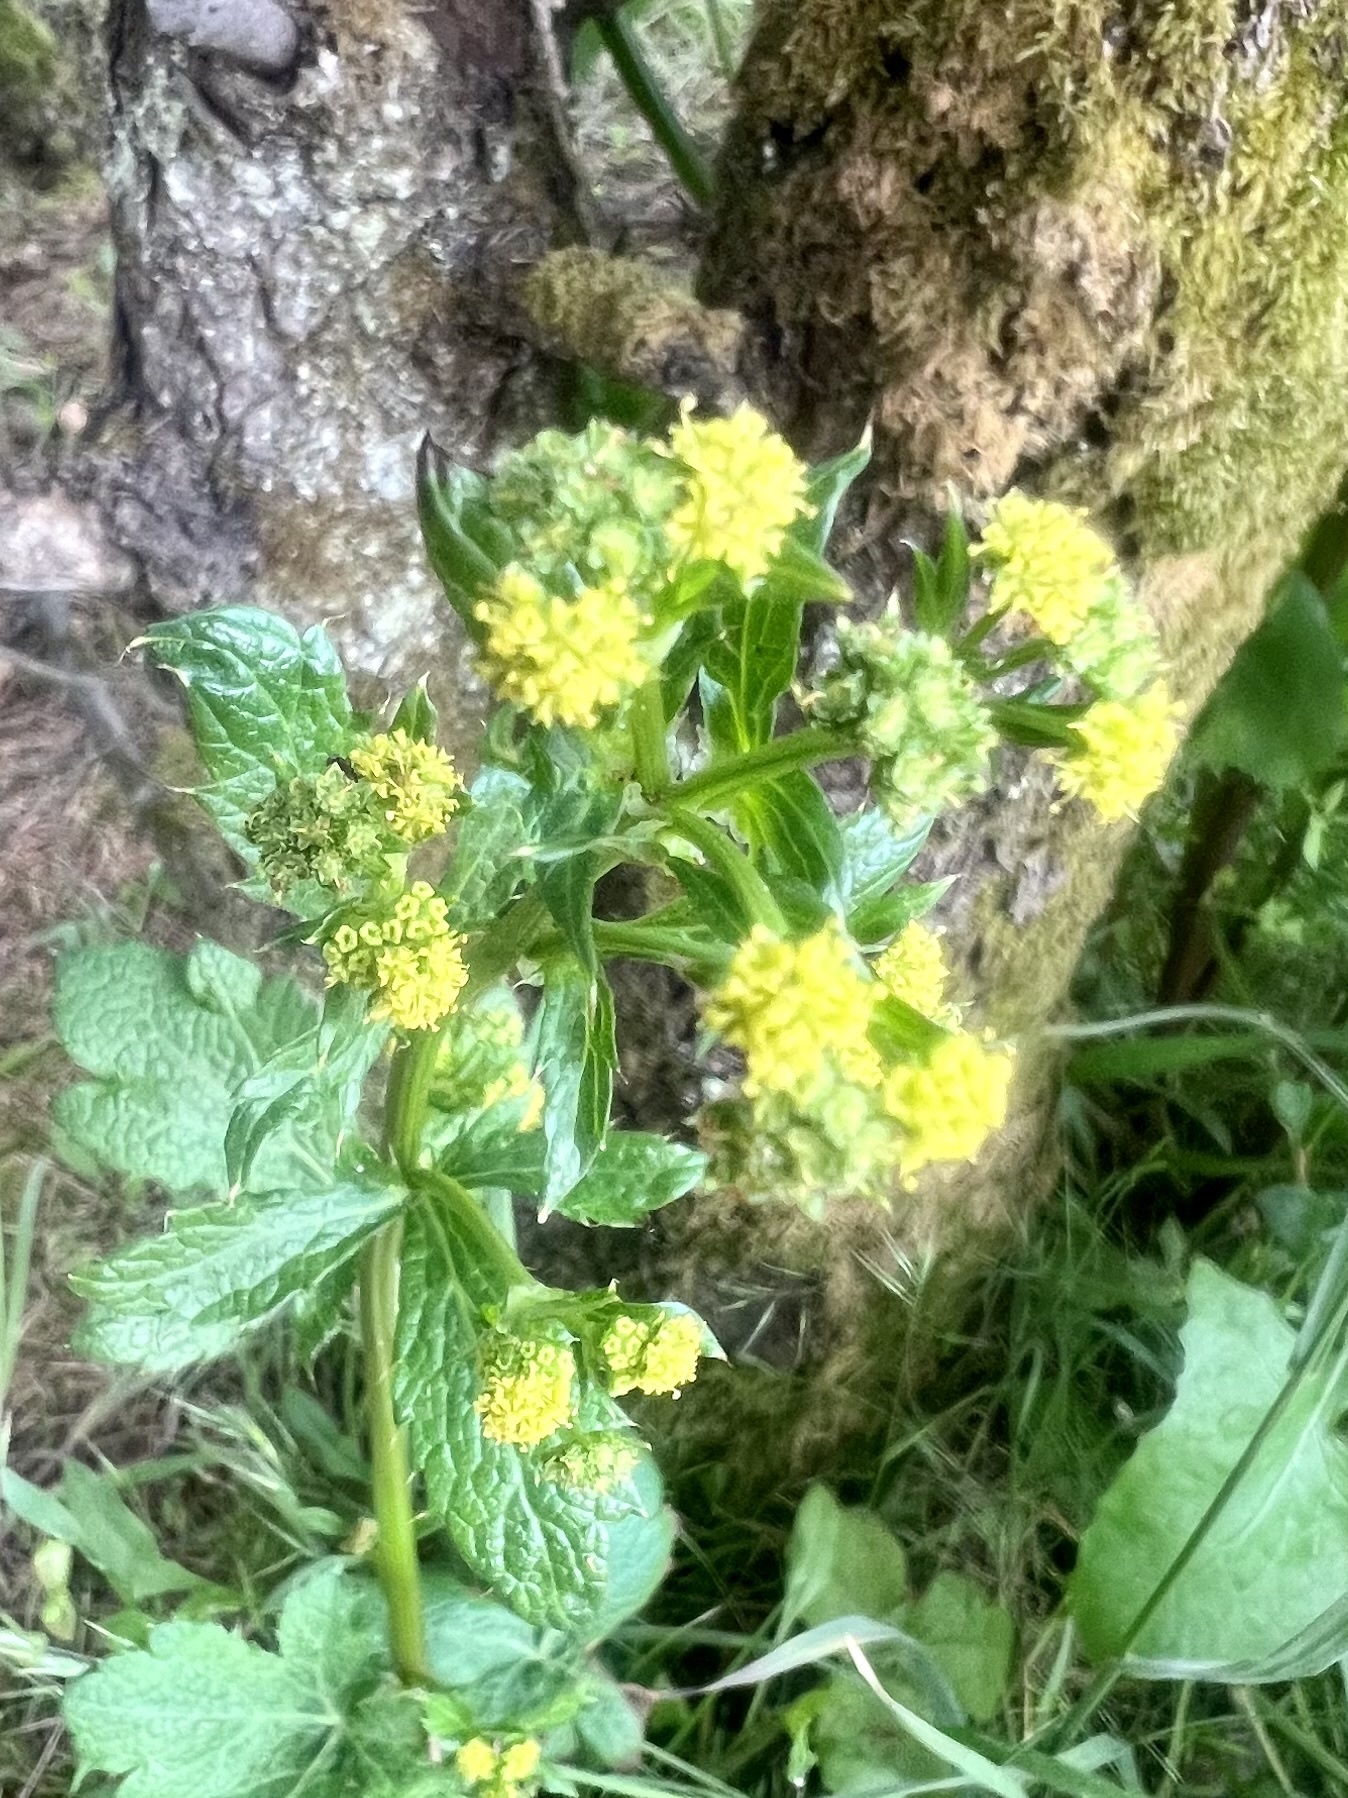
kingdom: Plantae
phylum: Tracheophyta
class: Magnoliopsida
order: Apiales
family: Apiaceae
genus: Sanicula
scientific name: Sanicula crassicaulis
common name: Western snakeroot
